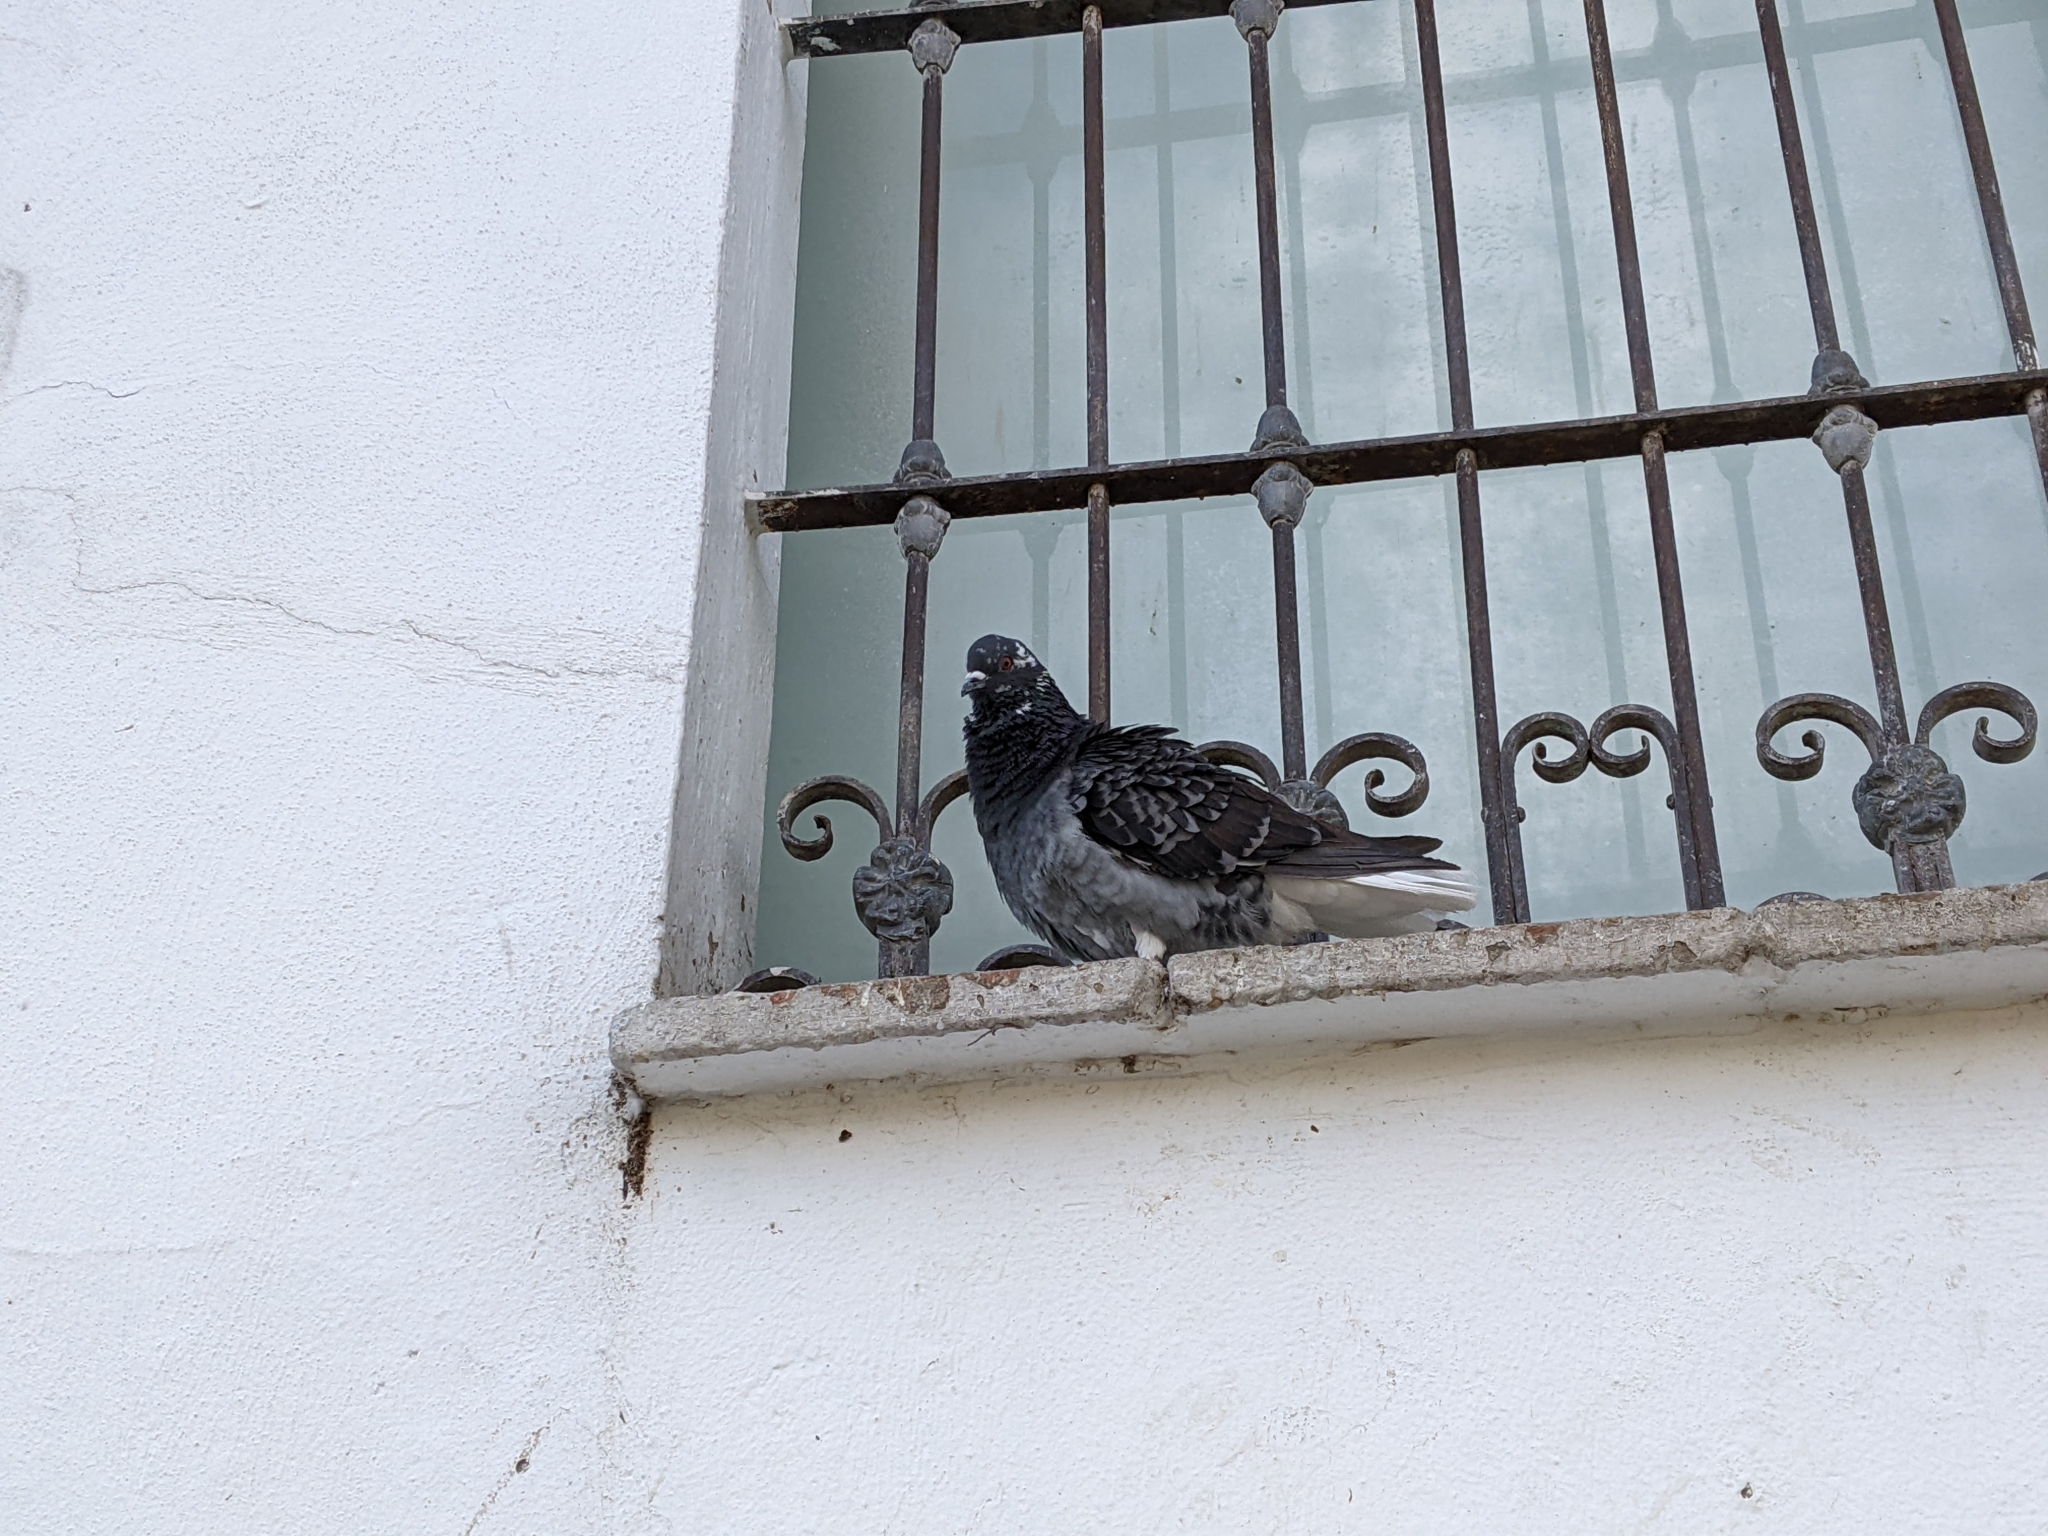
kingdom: Animalia
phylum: Chordata
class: Aves
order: Columbiformes
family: Columbidae
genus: Columba
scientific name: Columba livia
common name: Rock pigeon
